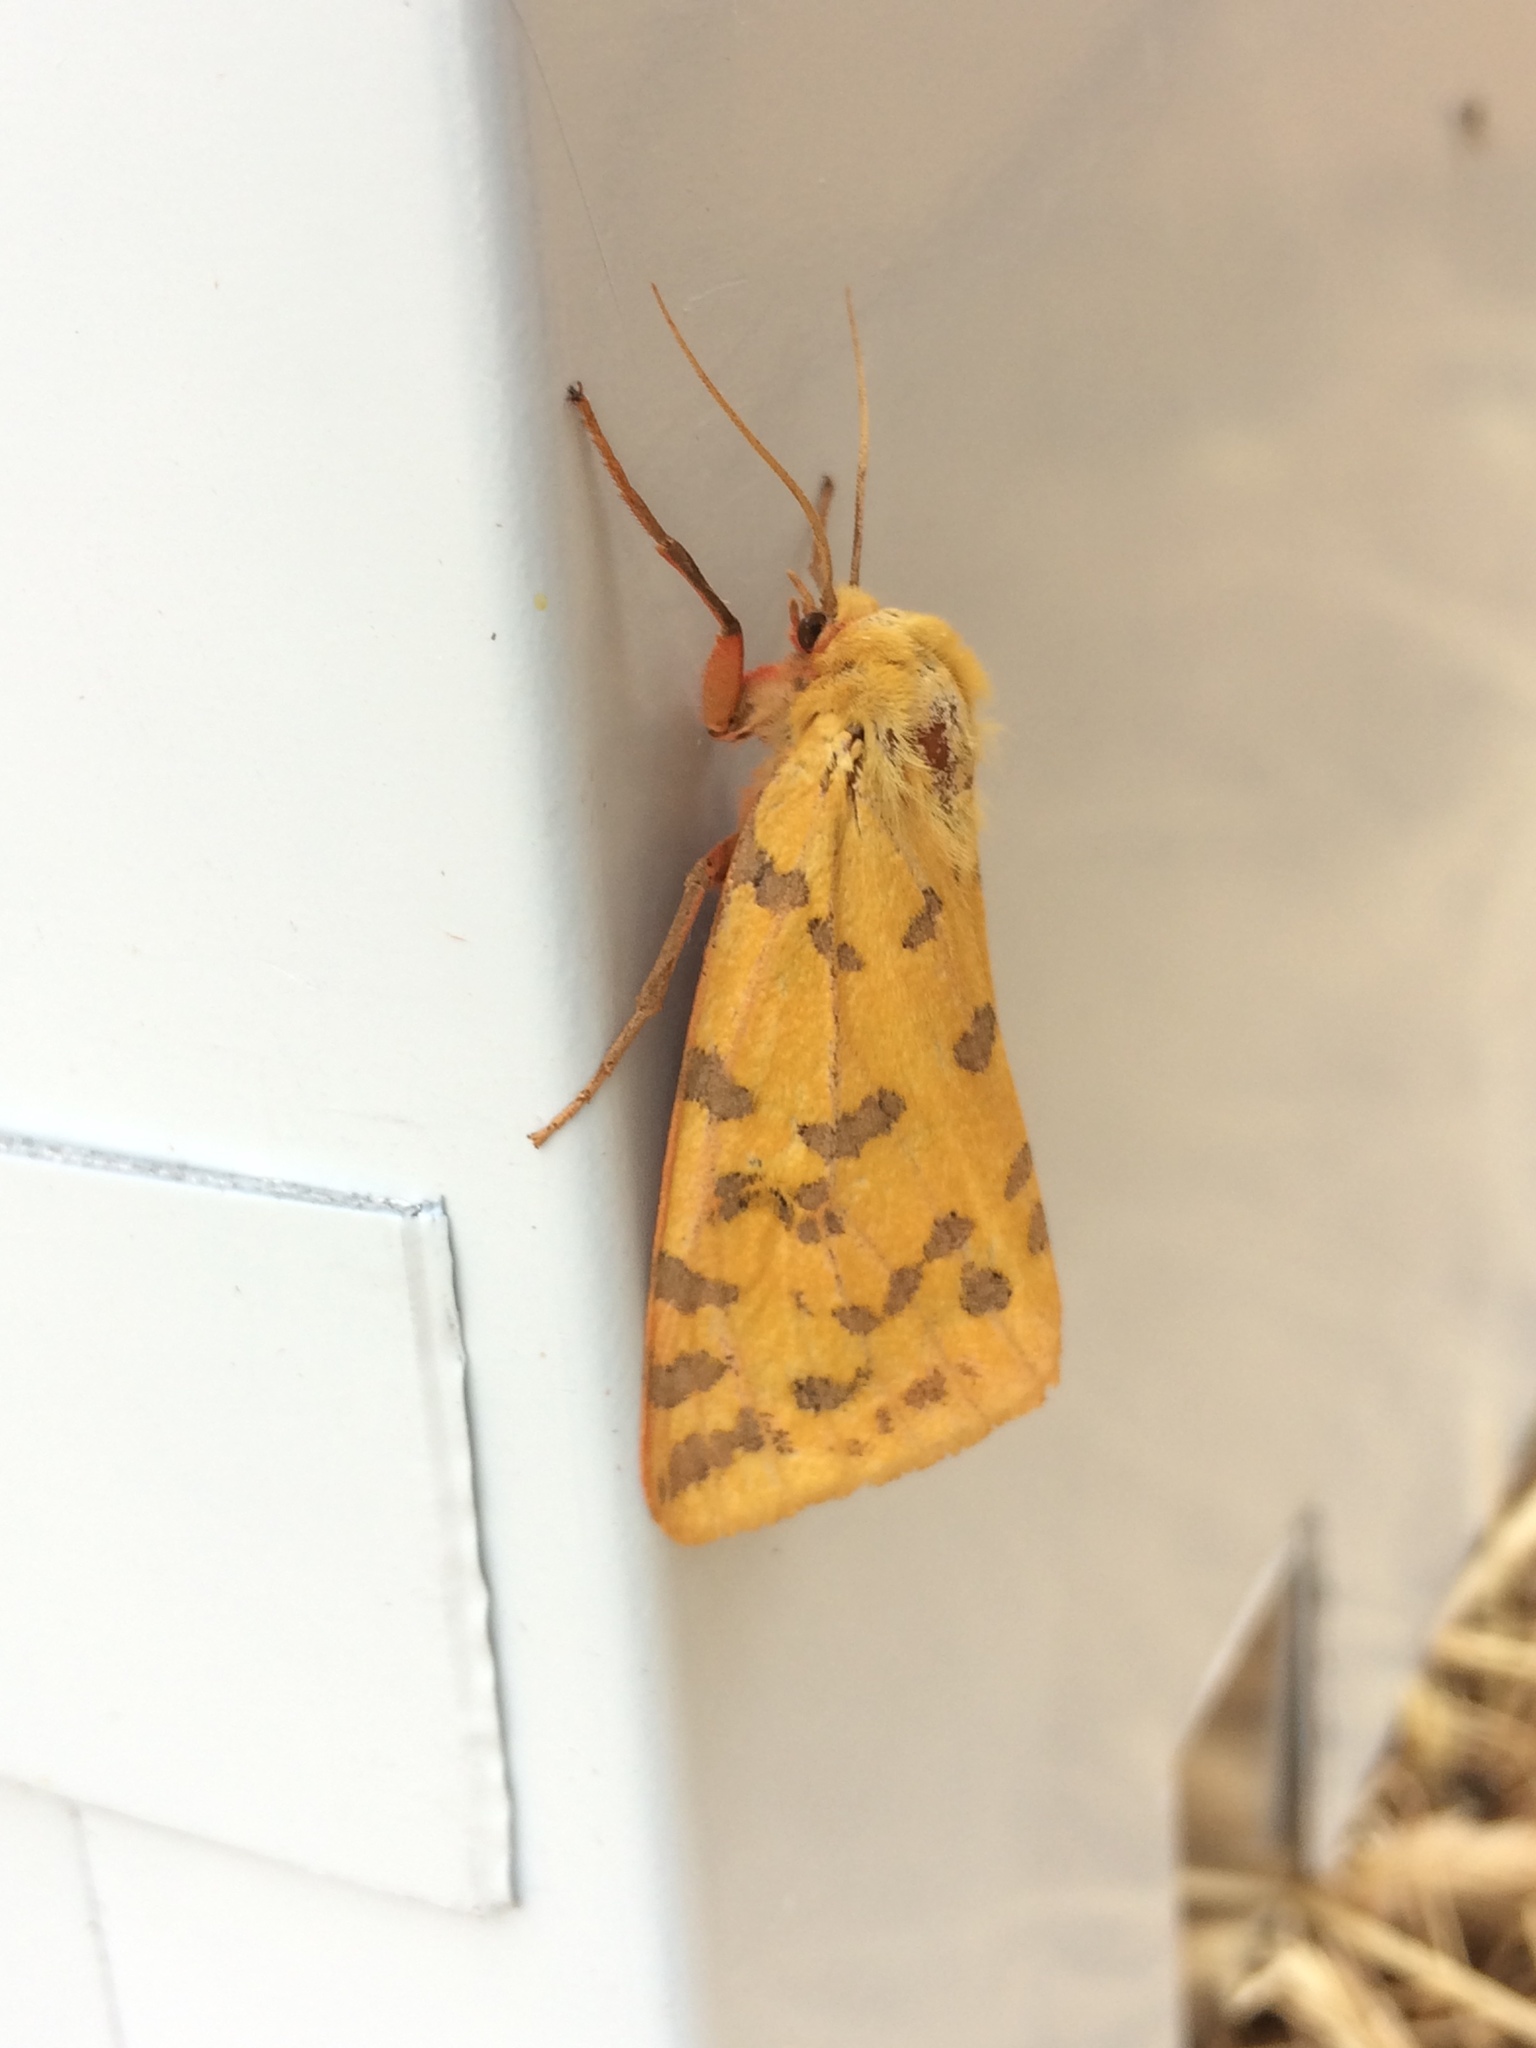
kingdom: Animalia
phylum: Arthropoda
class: Insecta
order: Lepidoptera
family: Erebidae
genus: Rhyparia
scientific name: Rhyparia purpurata
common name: Purple tiger
